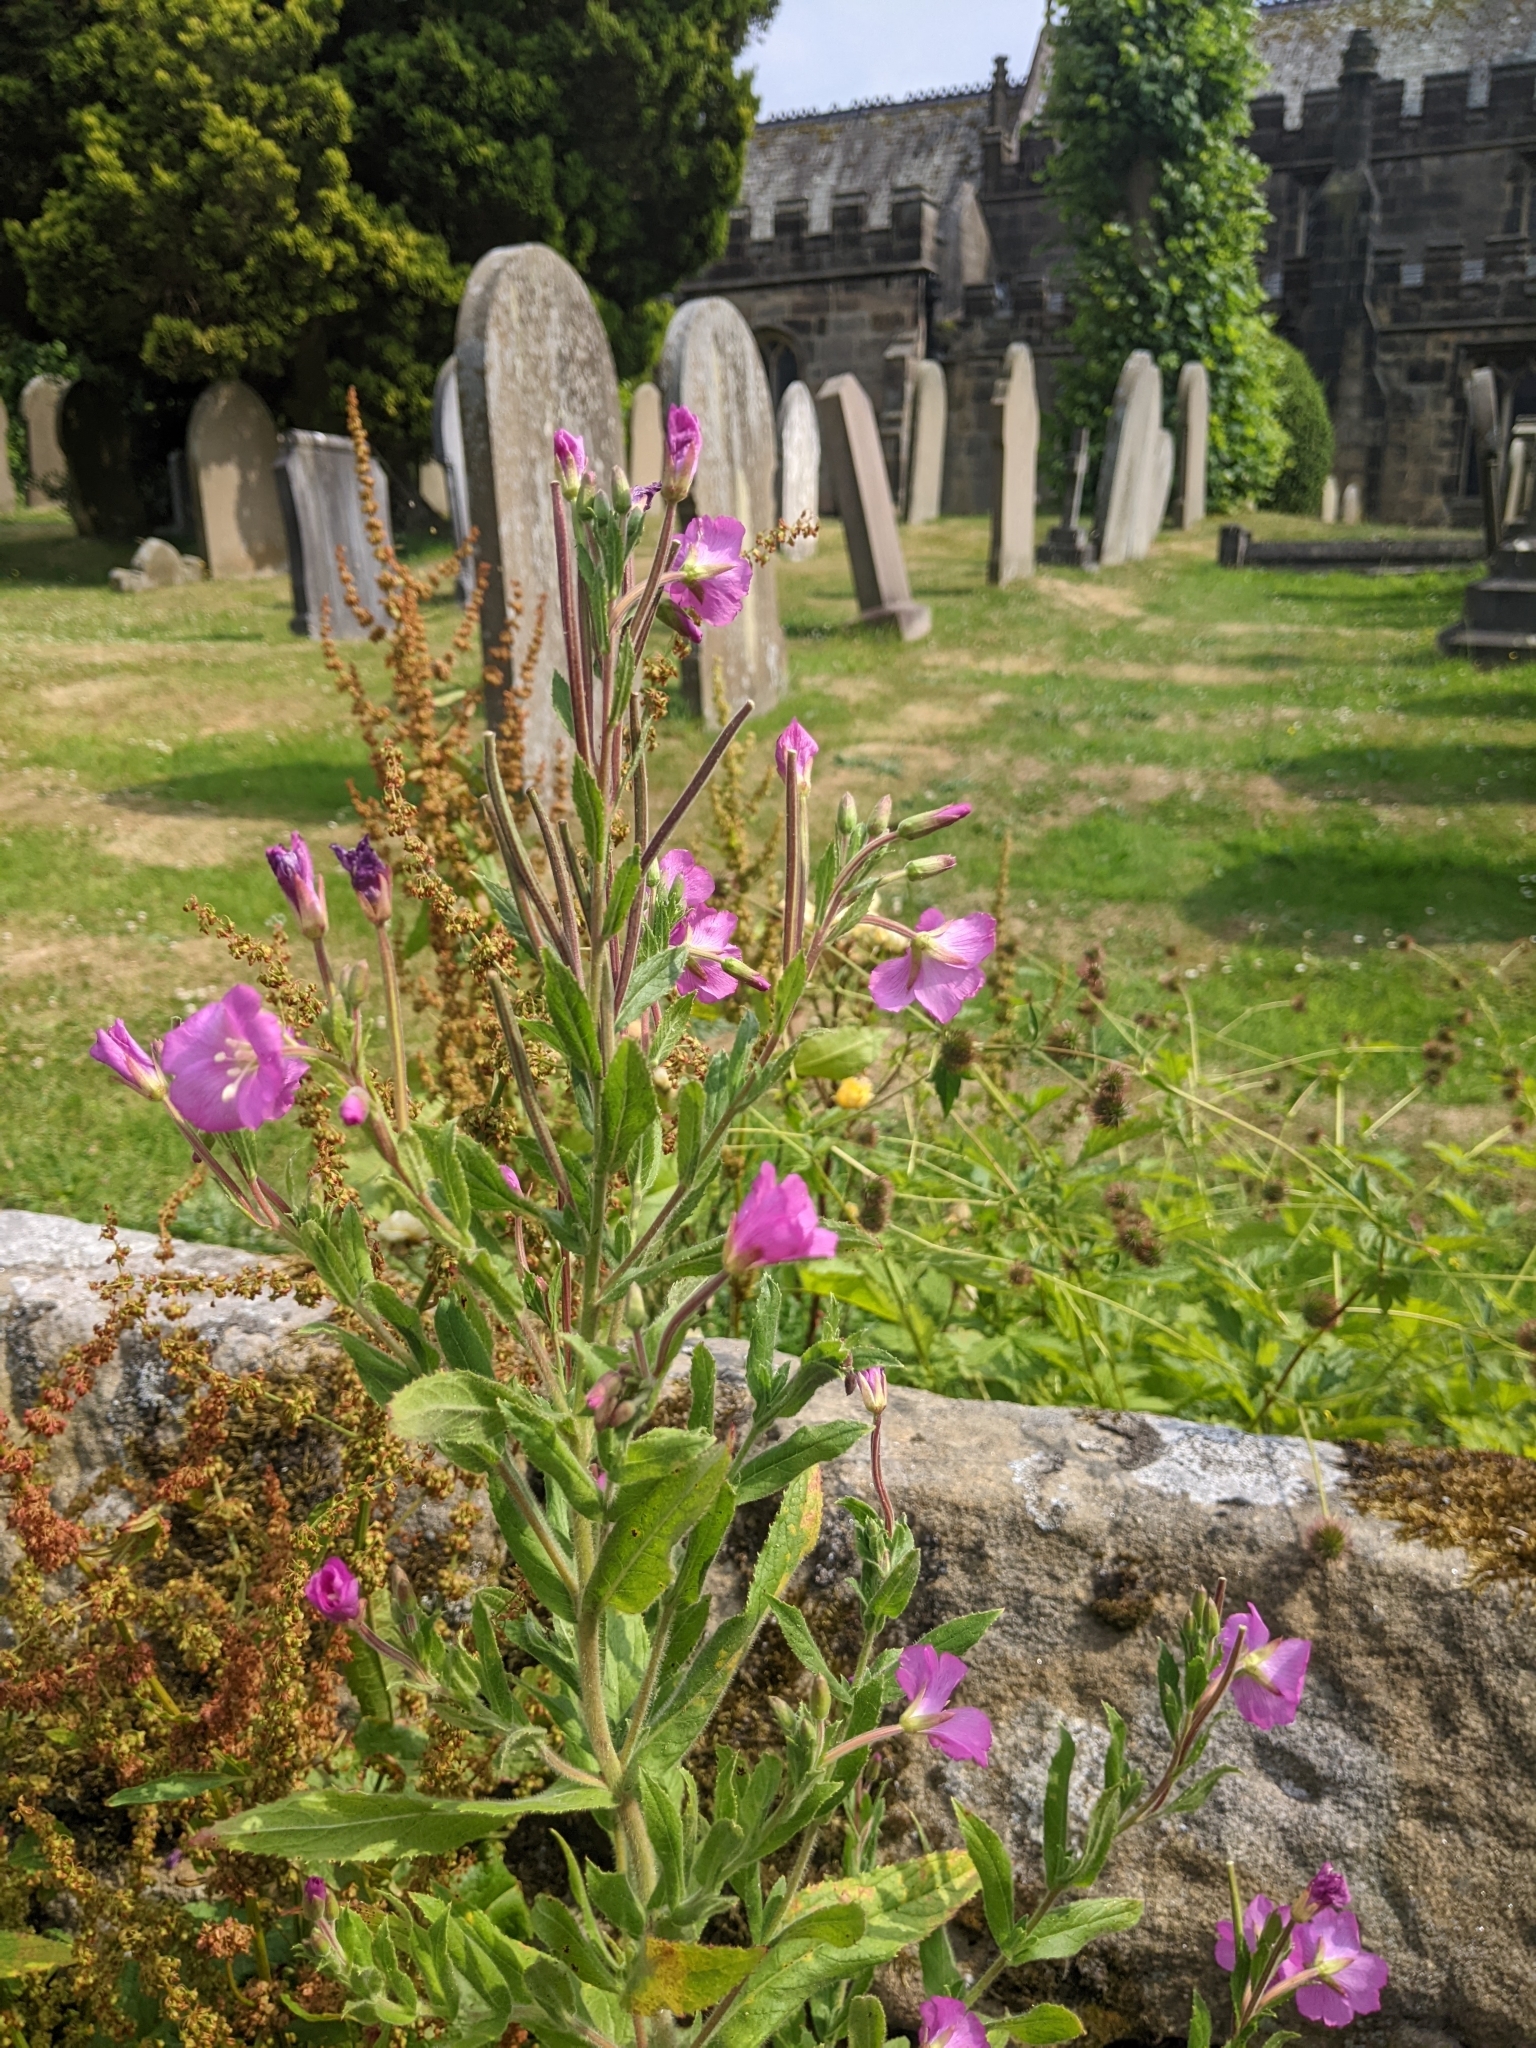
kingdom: Plantae
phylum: Tracheophyta
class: Magnoliopsida
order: Myrtales
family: Onagraceae
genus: Epilobium
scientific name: Epilobium hirsutum
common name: Great willowherb
